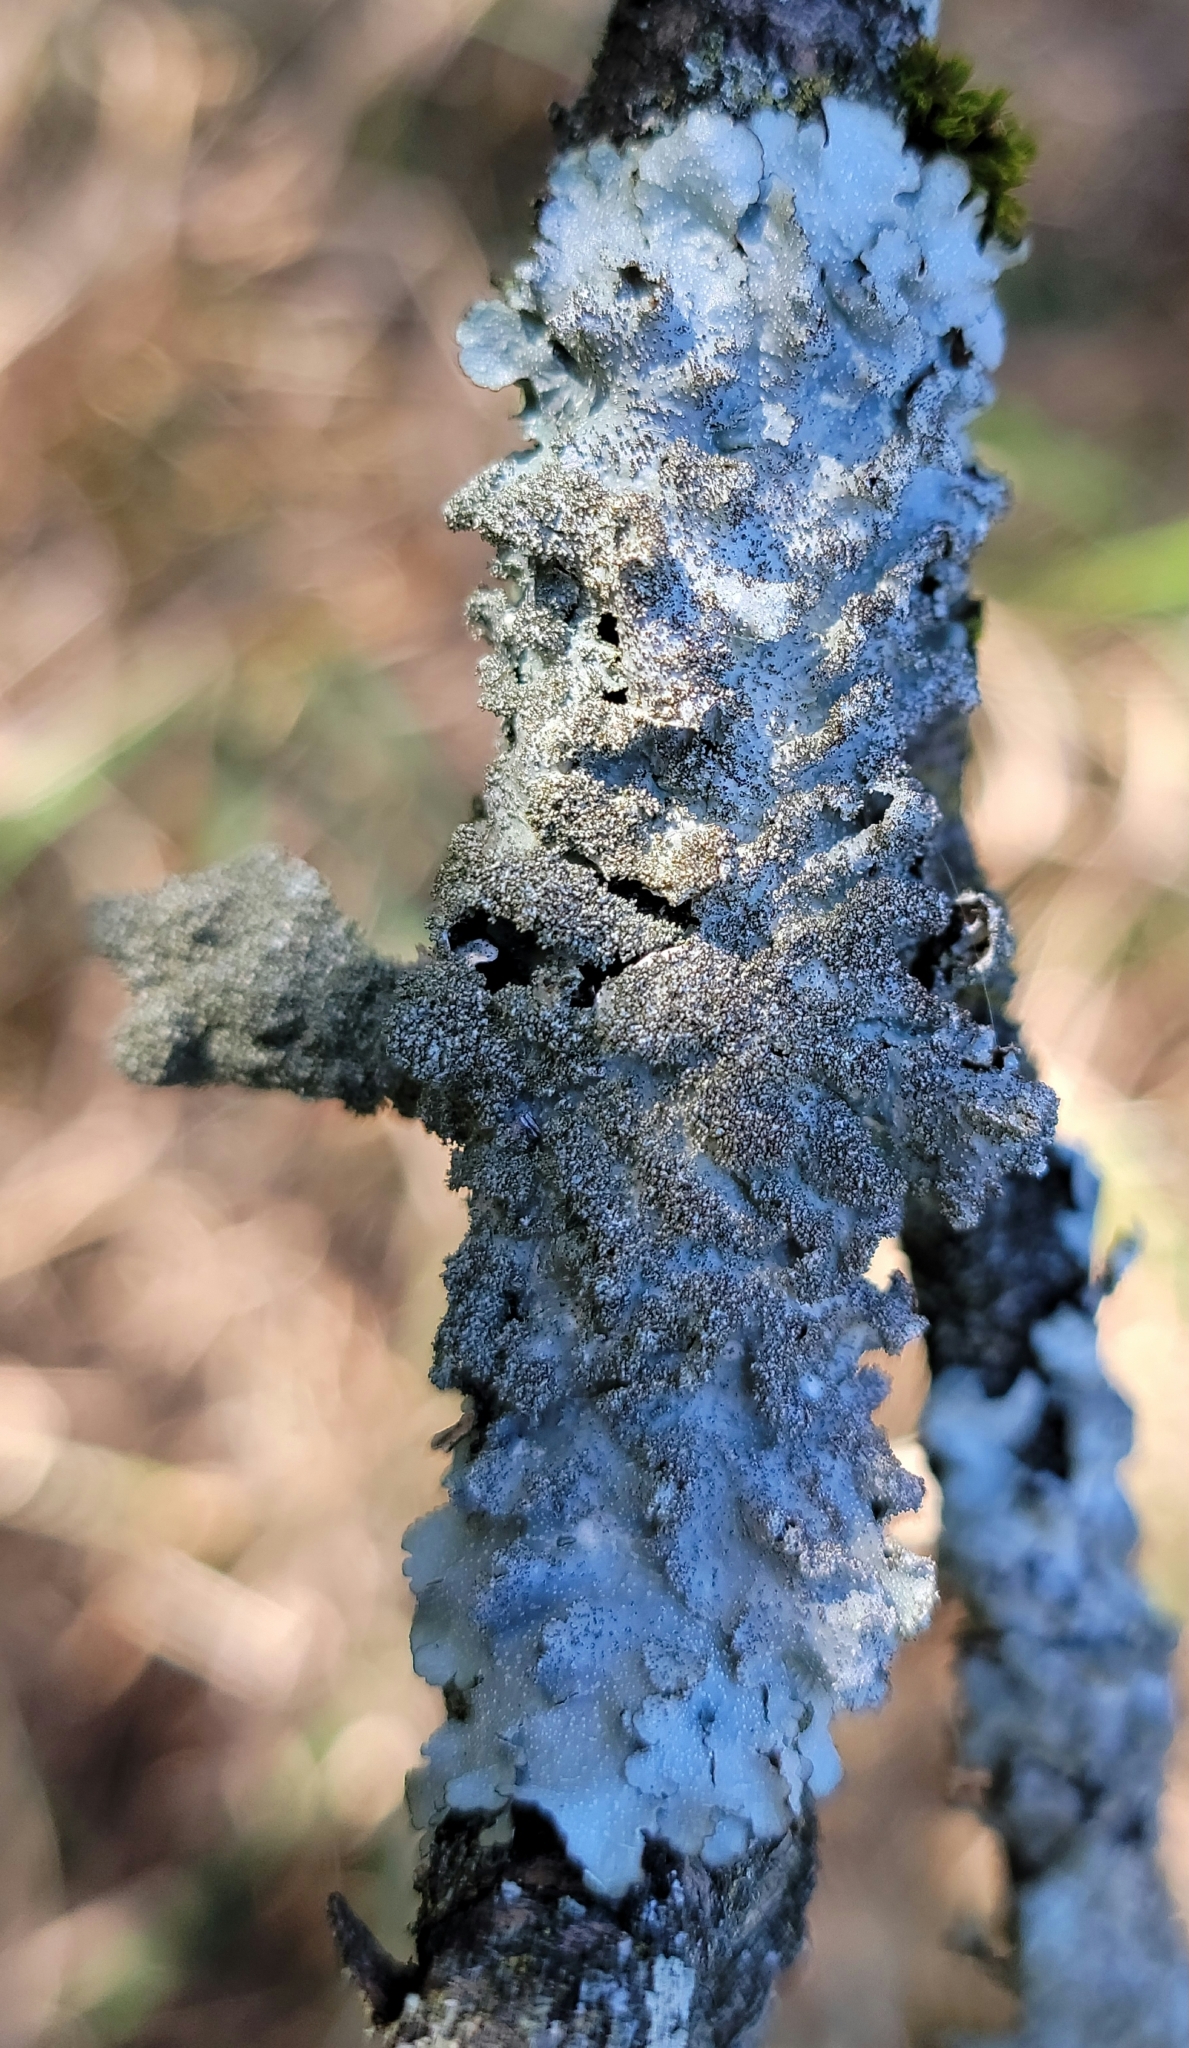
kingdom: Fungi
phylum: Ascomycota
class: Lecanoromycetes
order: Lecanorales
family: Parmeliaceae
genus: Punctelia
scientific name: Punctelia rudecta
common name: Rough speckled shield lichen
